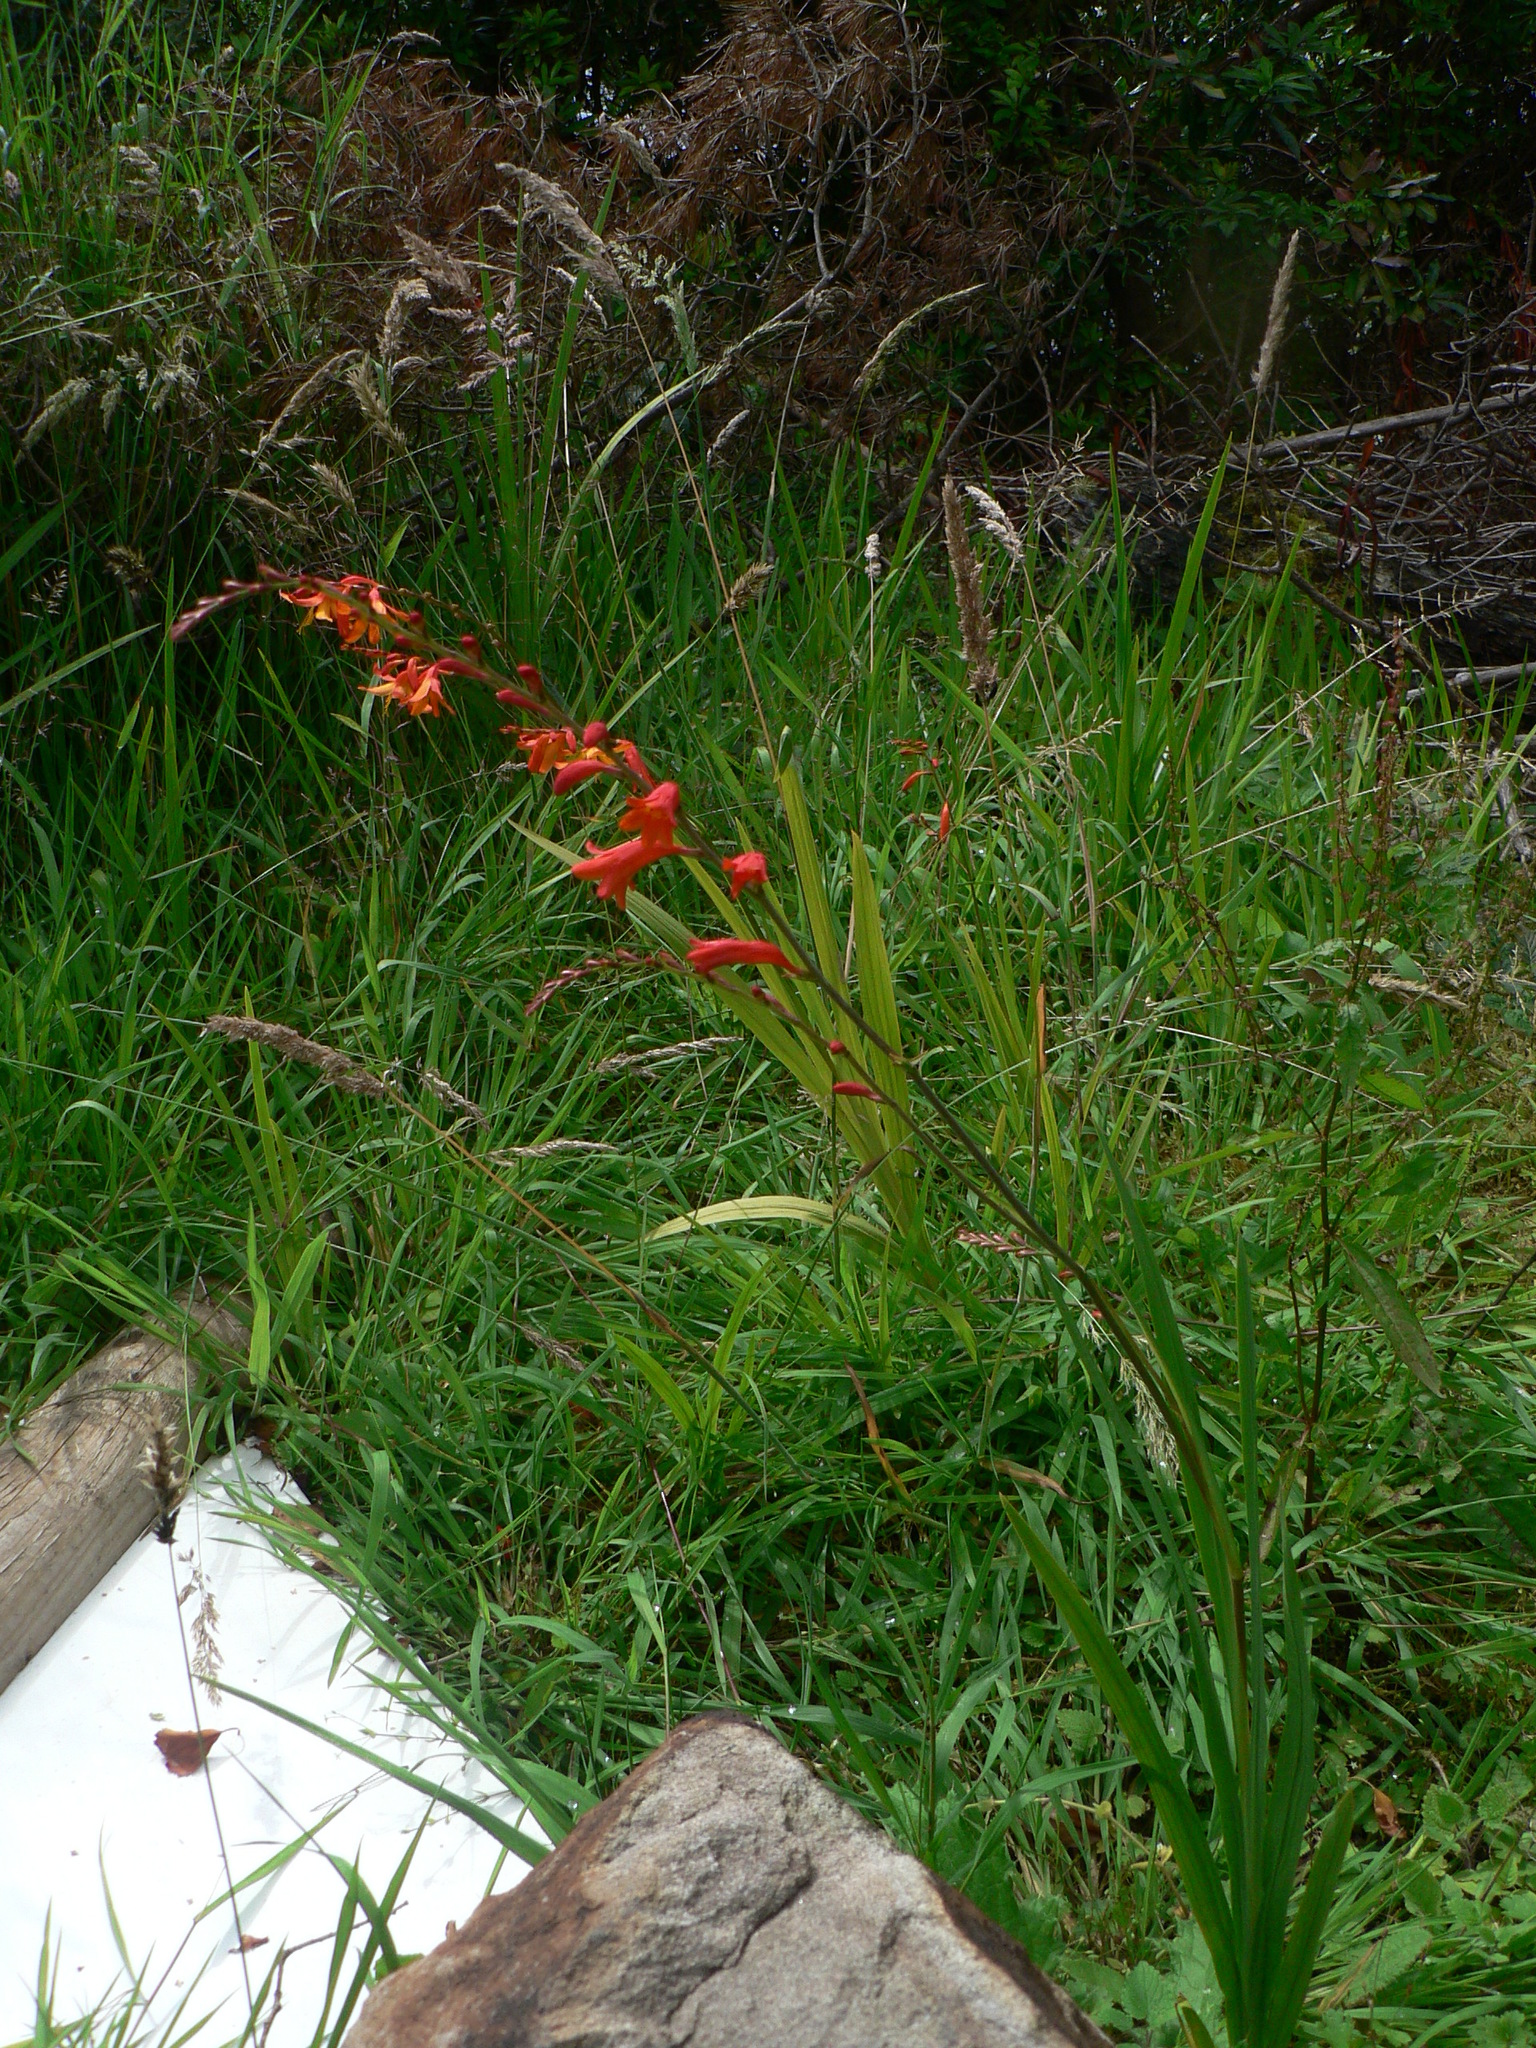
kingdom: Plantae
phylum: Tracheophyta
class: Liliopsida
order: Asparagales
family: Iridaceae
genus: Crocosmia
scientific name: Crocosmia crocosmiiflora
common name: Montbretia
